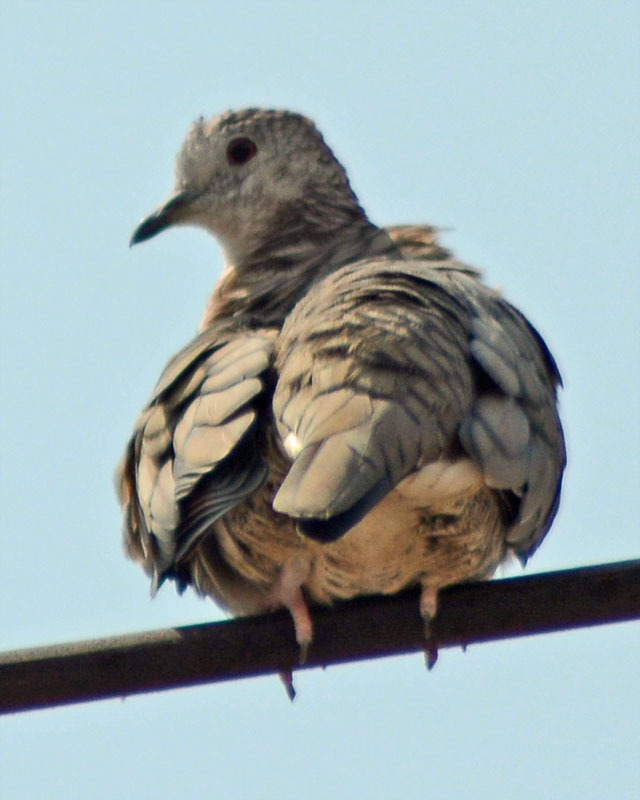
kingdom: Animalia
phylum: Chordata
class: Aves
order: Columbiformes
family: Columbidae
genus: Columbina
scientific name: Columbina inca
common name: Inca dove
